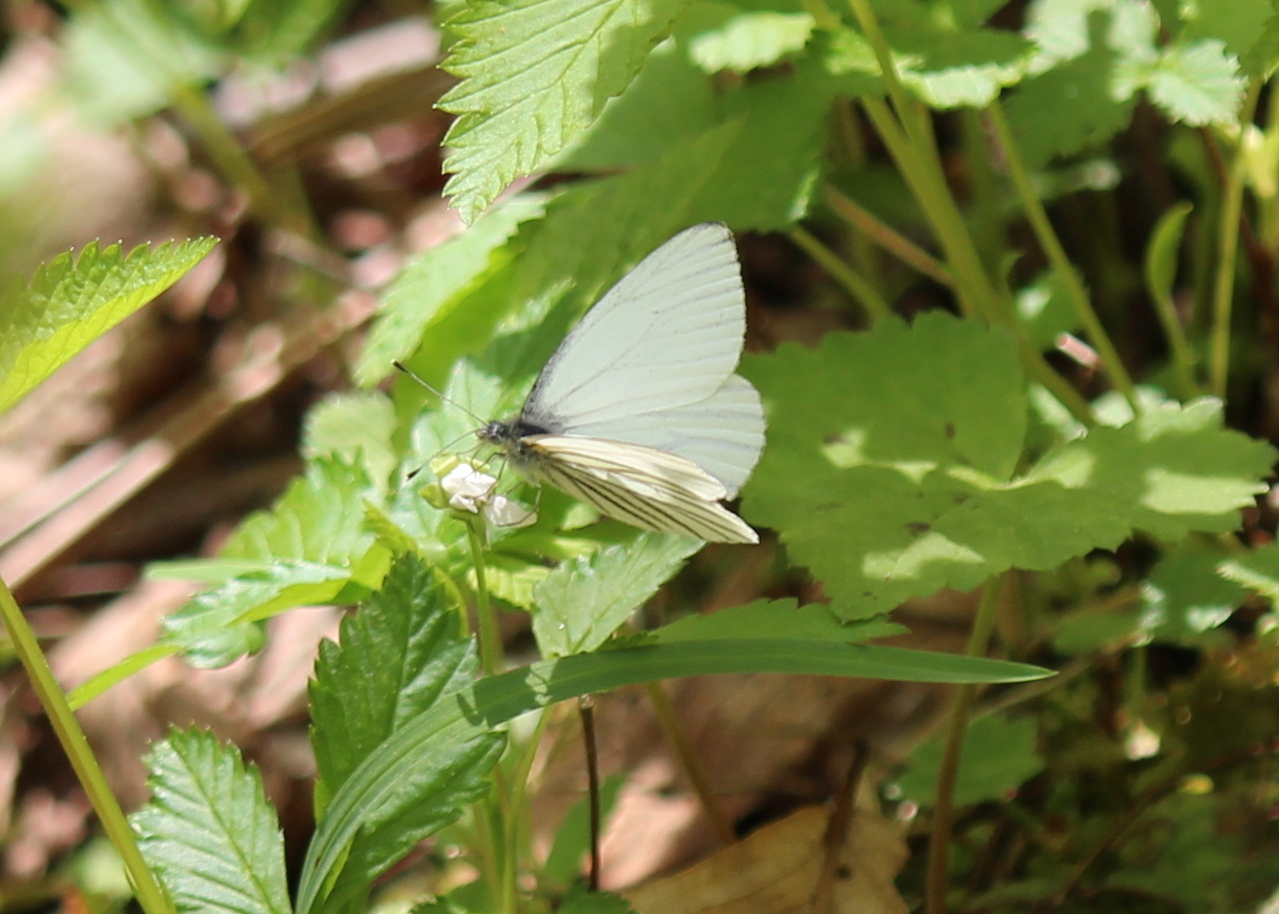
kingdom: Animalia
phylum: Arthropoda
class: Insecta
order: Lepidoptera
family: Pieridae
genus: Pieris
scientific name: Pieris oleracea
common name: Mustard white
